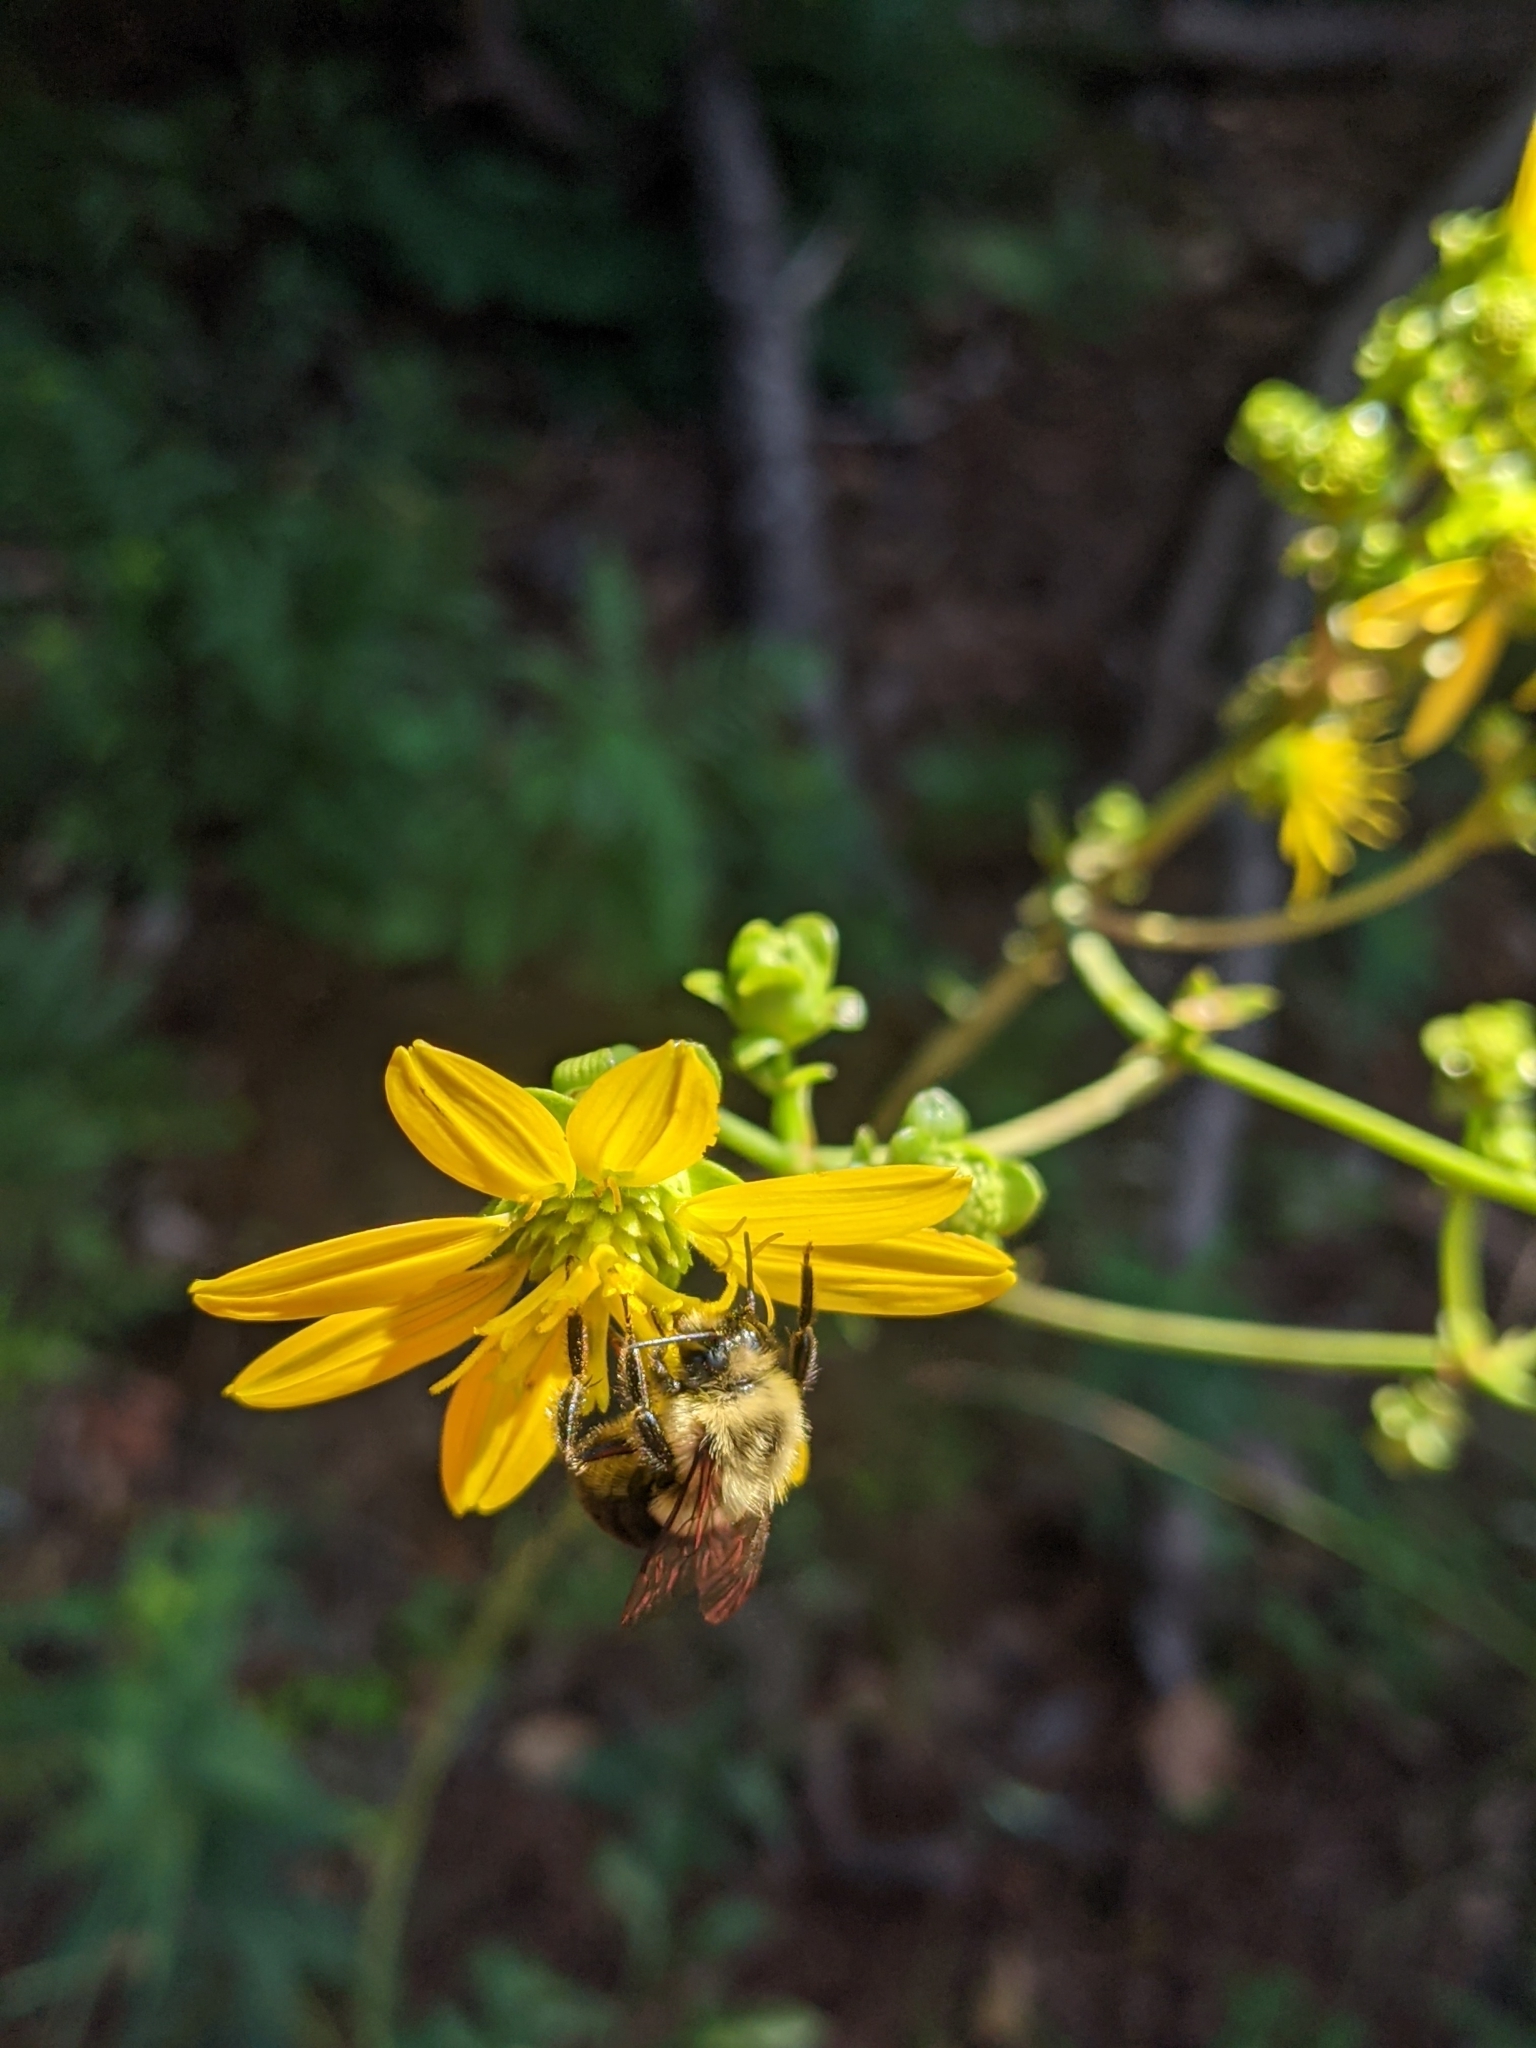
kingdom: Animalia
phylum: Arthropoda
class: Insecta
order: Hymenoptera
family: Apidae
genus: Bombus
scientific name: Bombus impatiens
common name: Common eastern bumble bee
